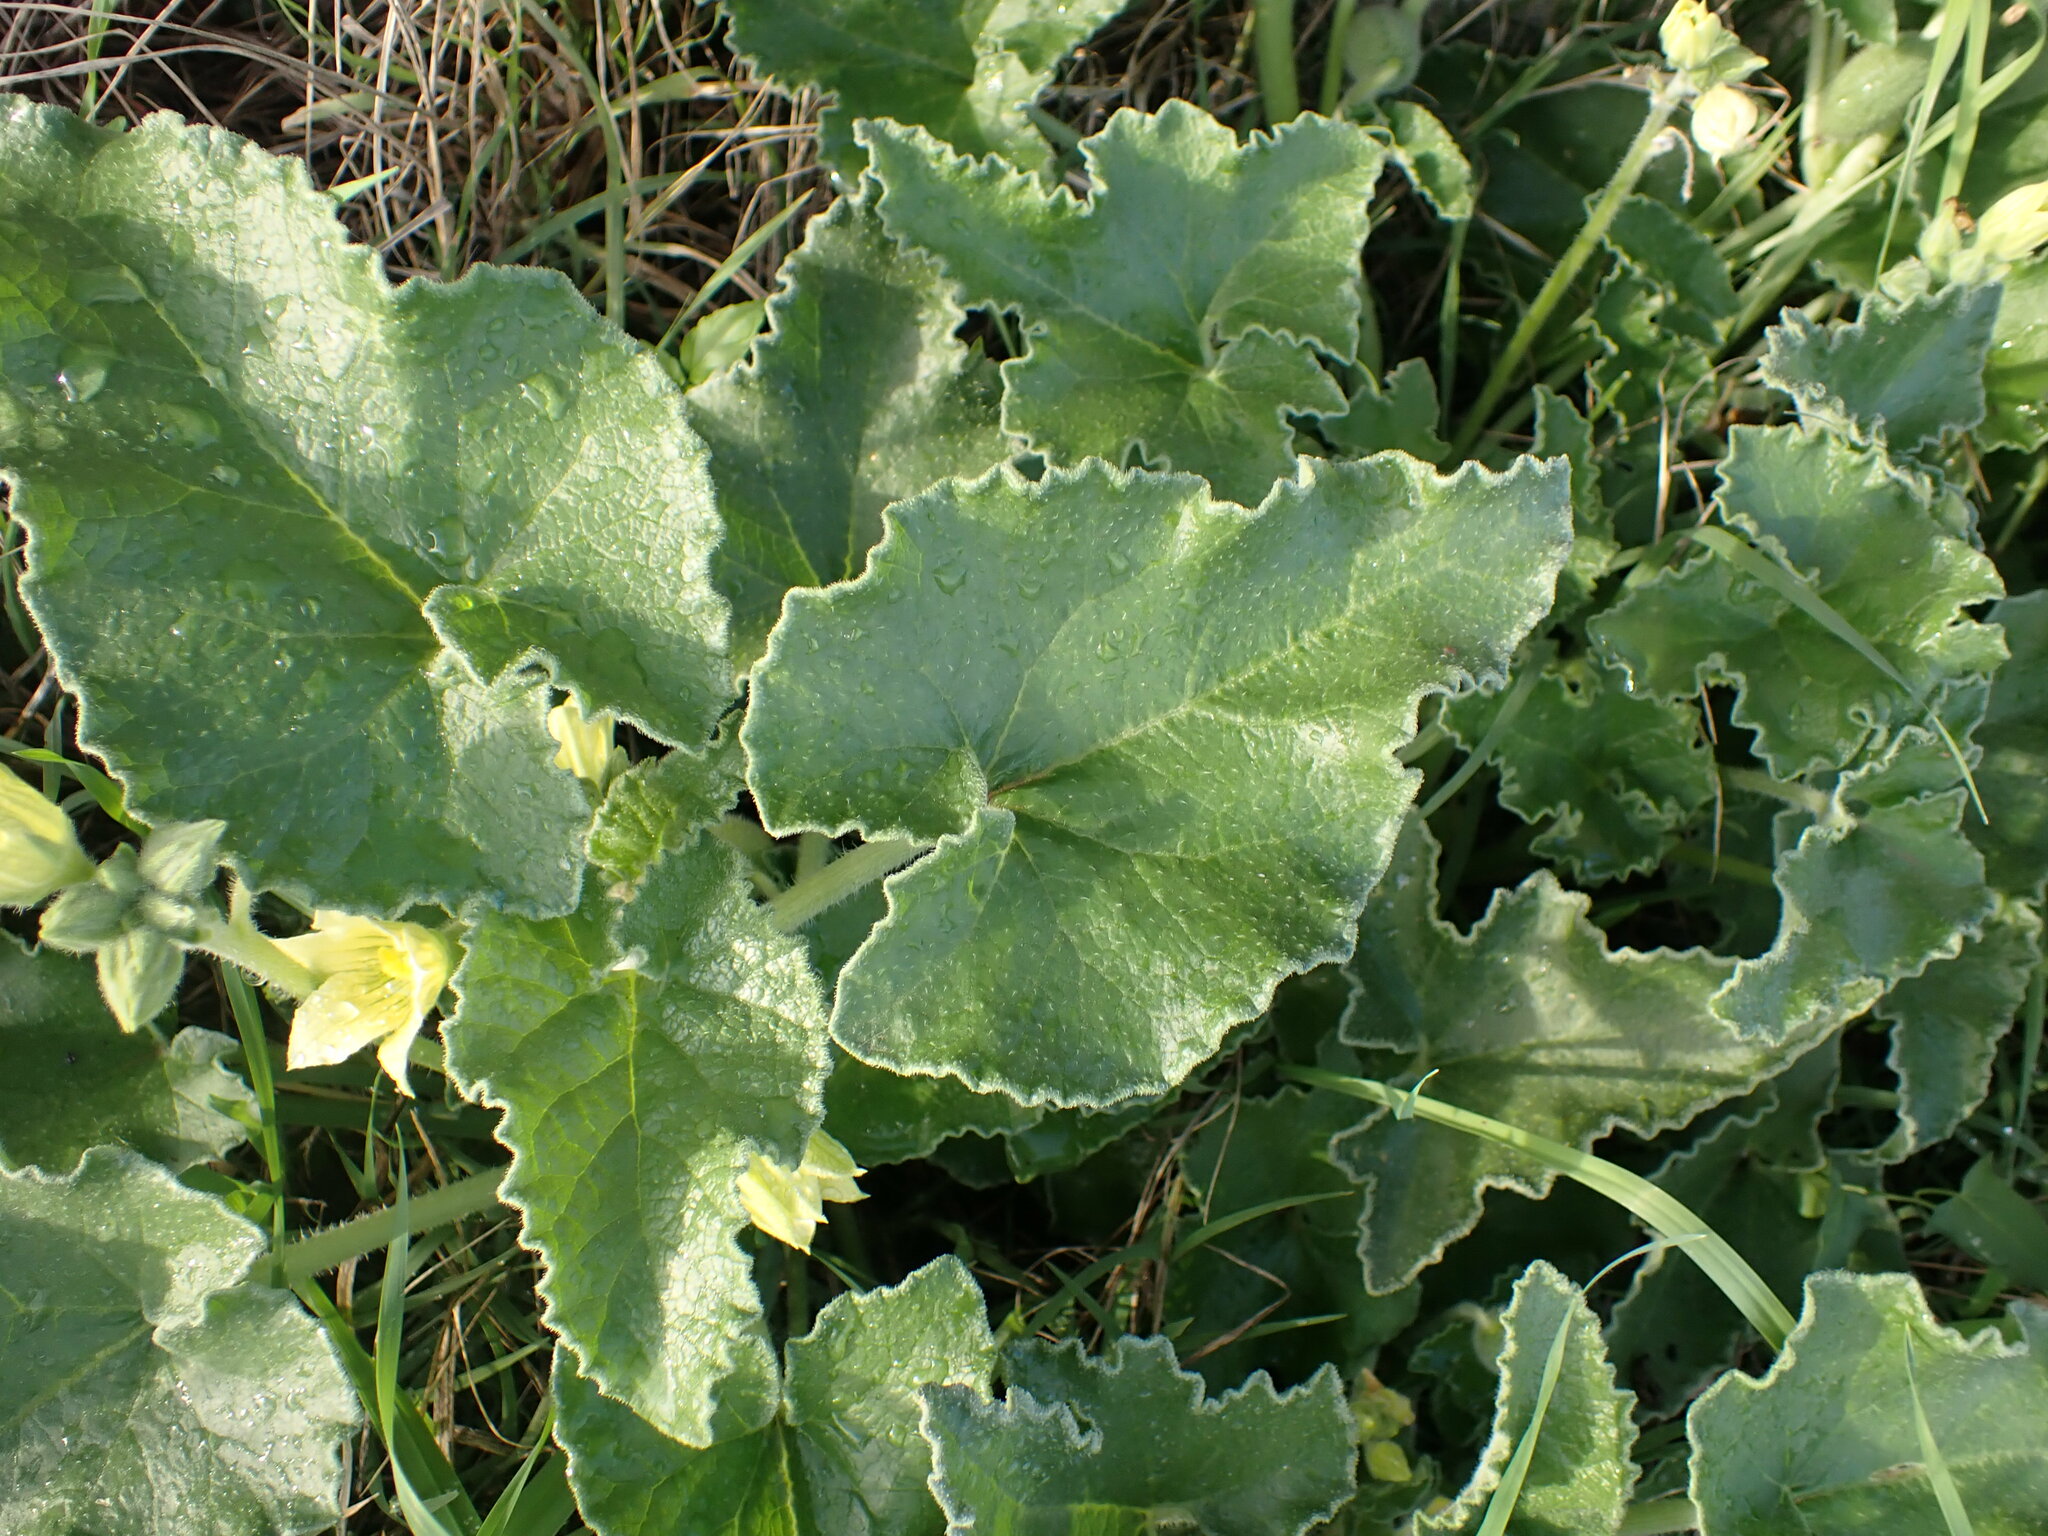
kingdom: Plantae
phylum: Tracheophyta
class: Magnoliopsida
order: Cucurbitales
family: Cucurbitaceae
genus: Ecballium
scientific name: Ecballium elaterium
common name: Squirting cucumber
